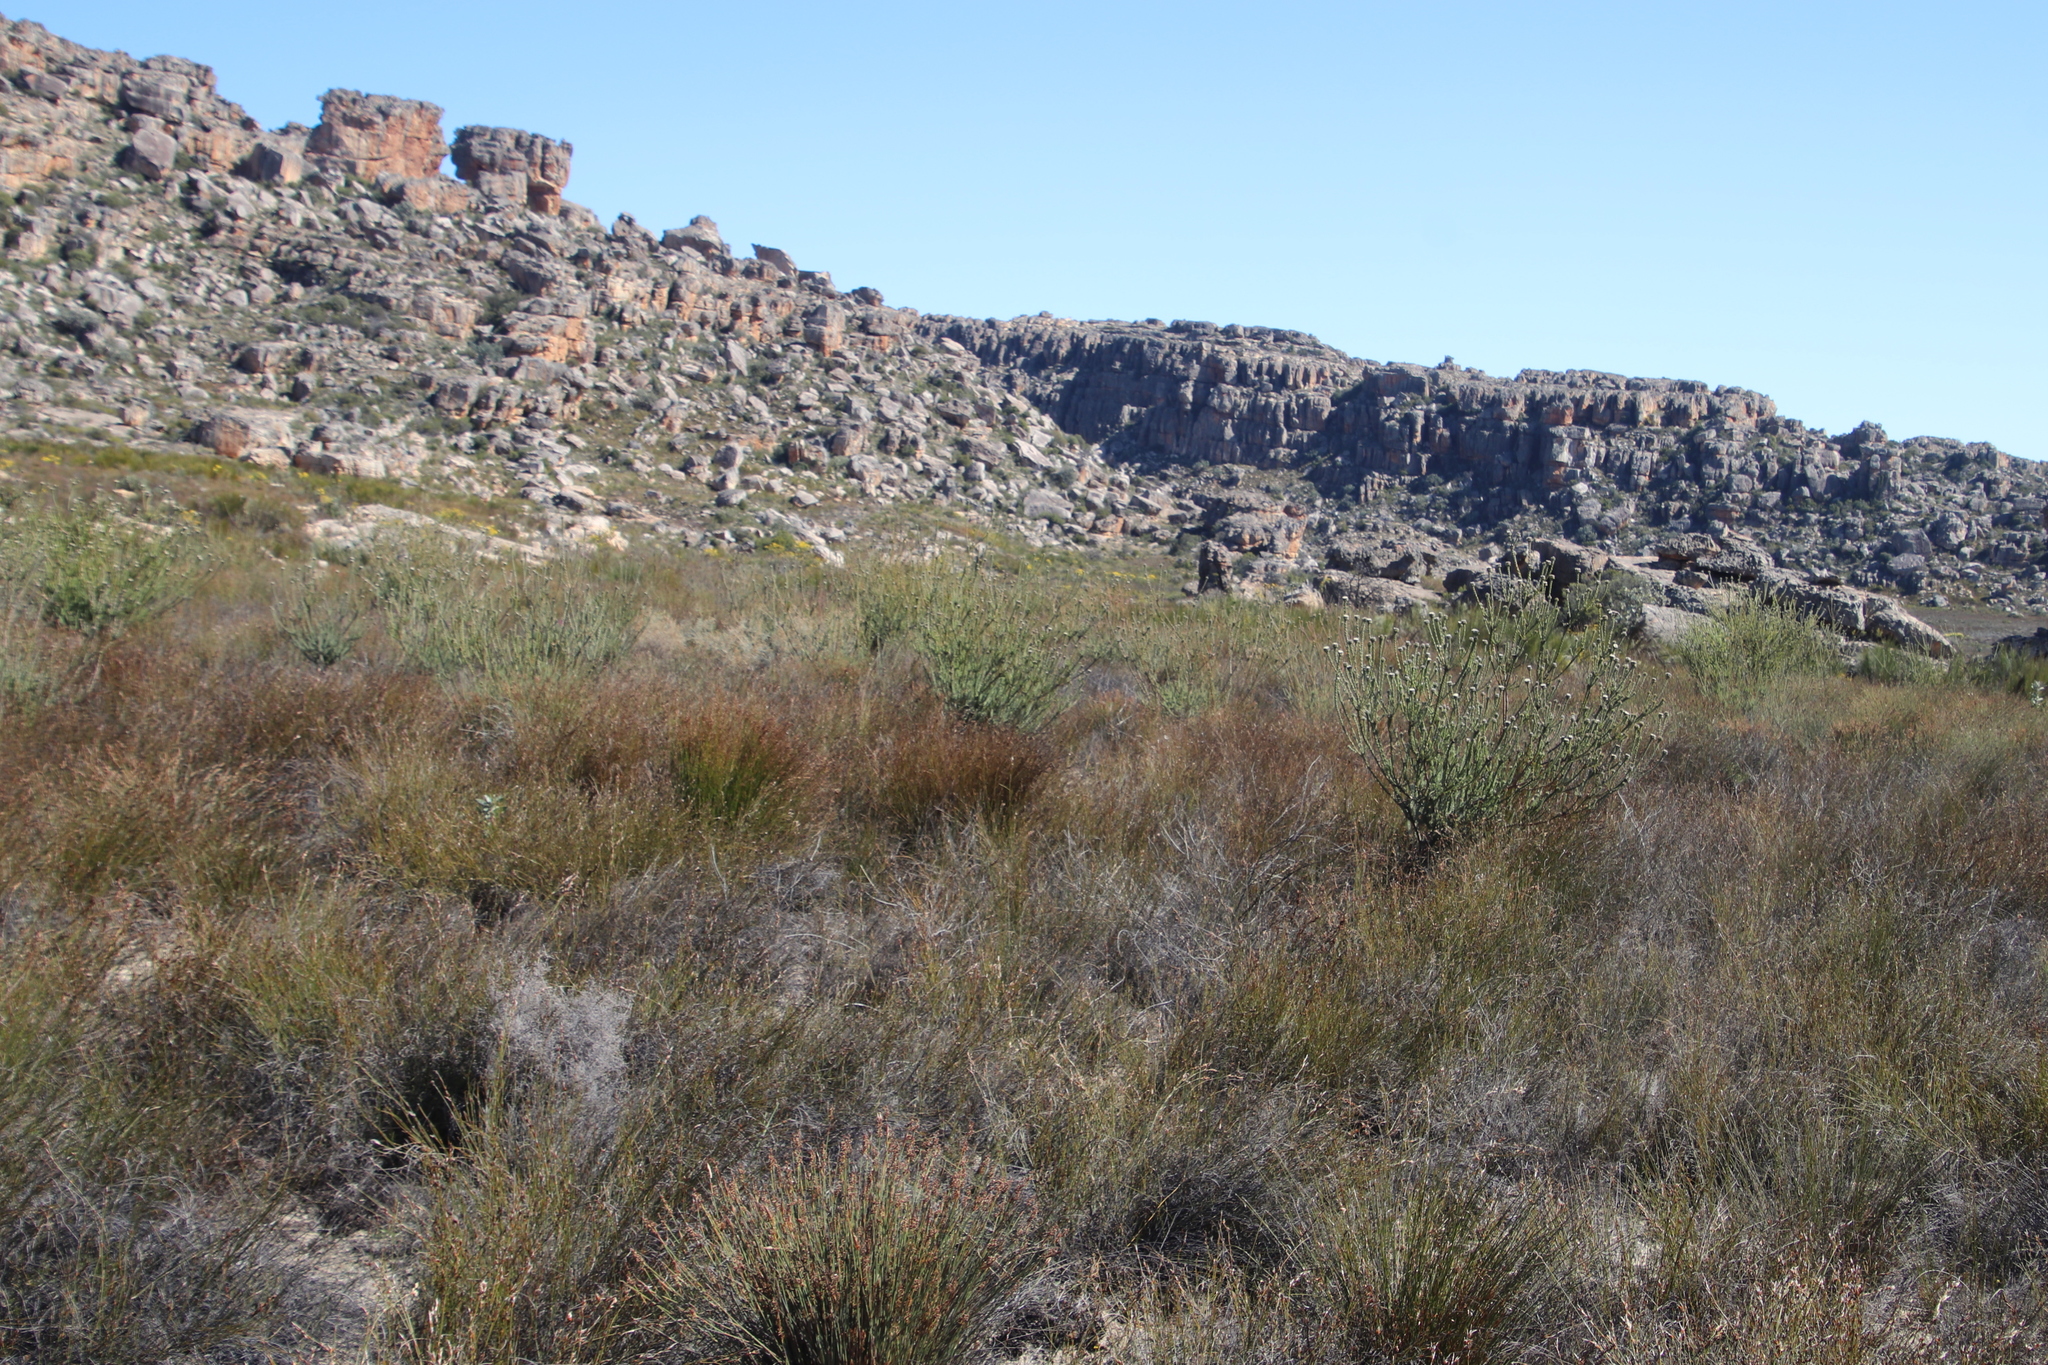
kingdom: Plantae
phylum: Tracheophyta
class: Magnoliopsida
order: Proteales
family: Proteaceae
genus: Leucadendron
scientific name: Leucadendron concavum
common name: Pakhuis conebush
